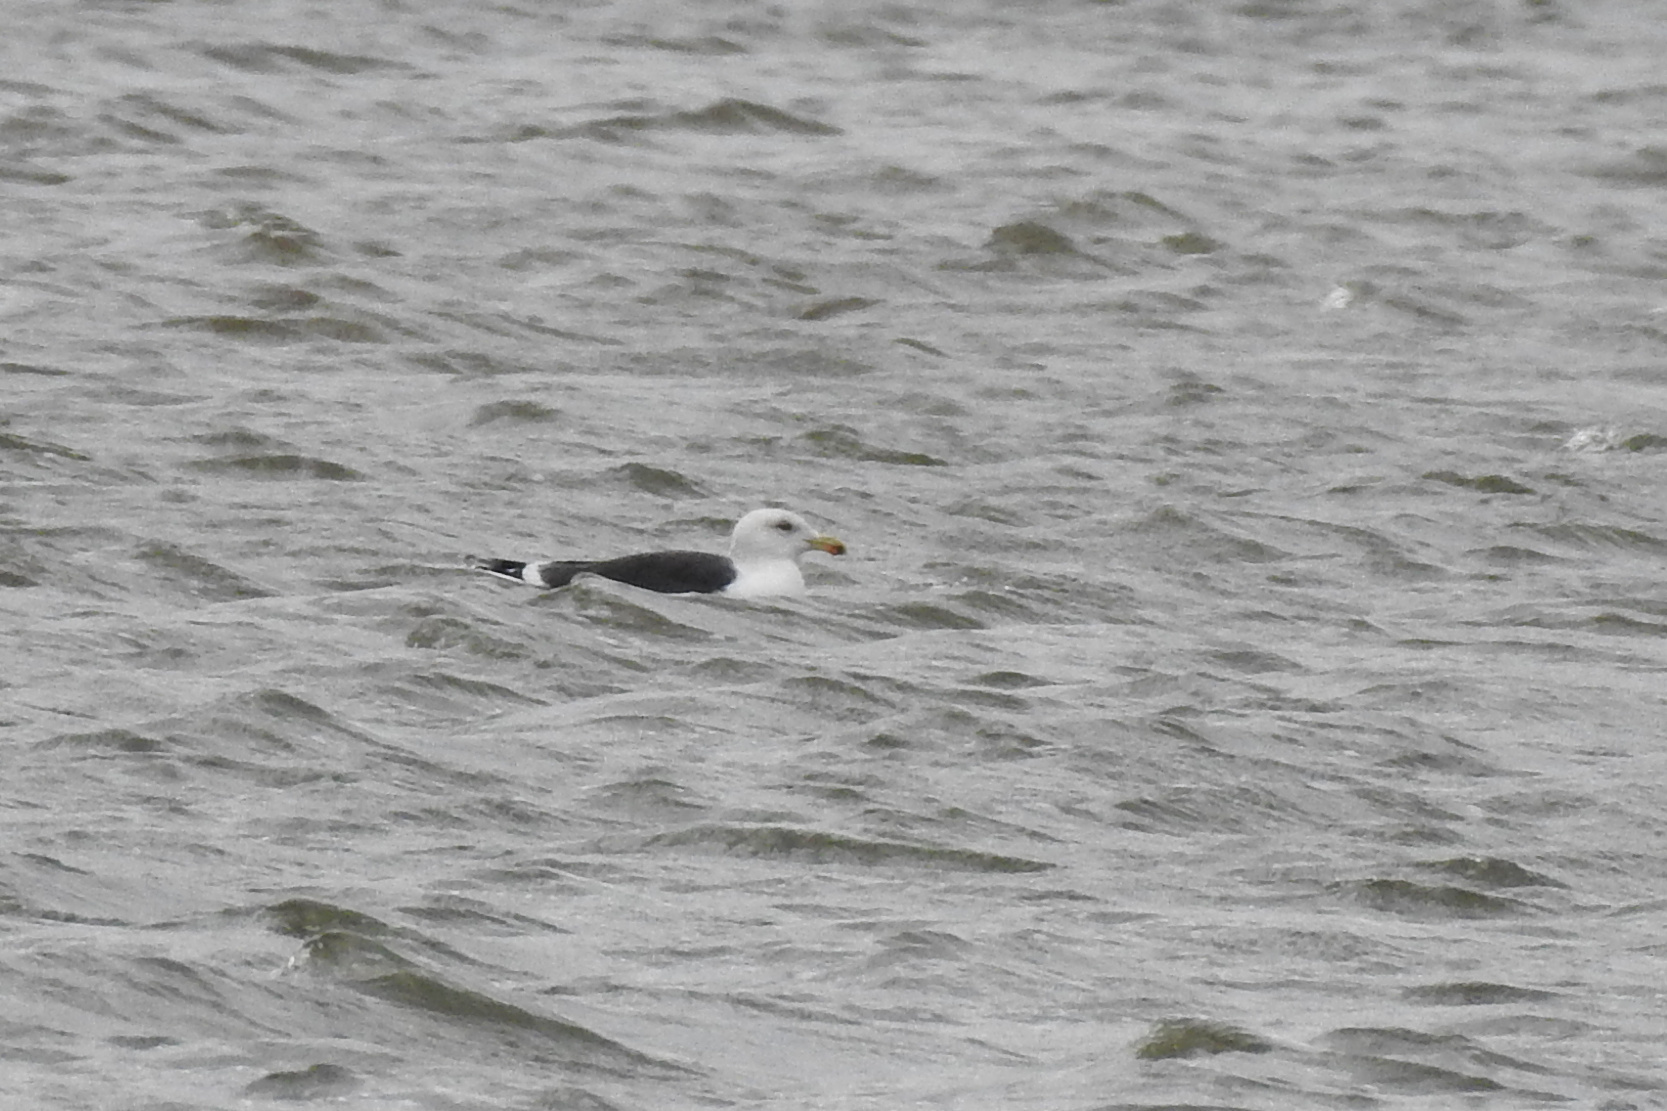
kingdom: Animalia
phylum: Chordata
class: Aves
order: Charadriiformes
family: Laridae
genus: Larus
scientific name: Larus marinus
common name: Great black-backed gull
